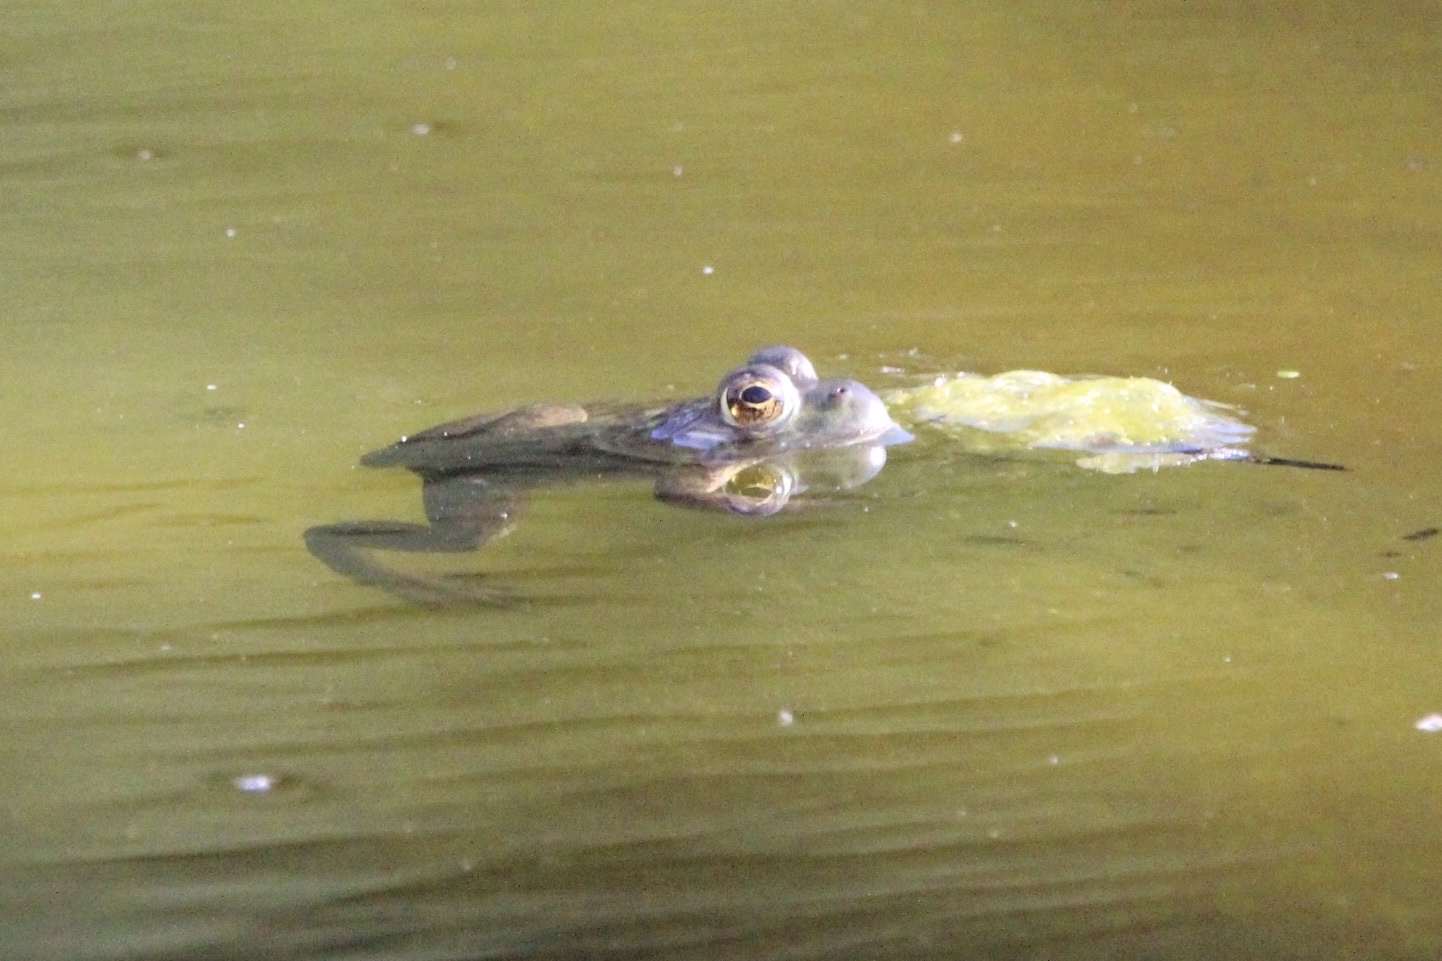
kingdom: Animalia
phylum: Chordata
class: Amphibia
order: Anura
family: Ranidae
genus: Lithobates
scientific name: Lithobates catesbeianus
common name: American bullfrog
